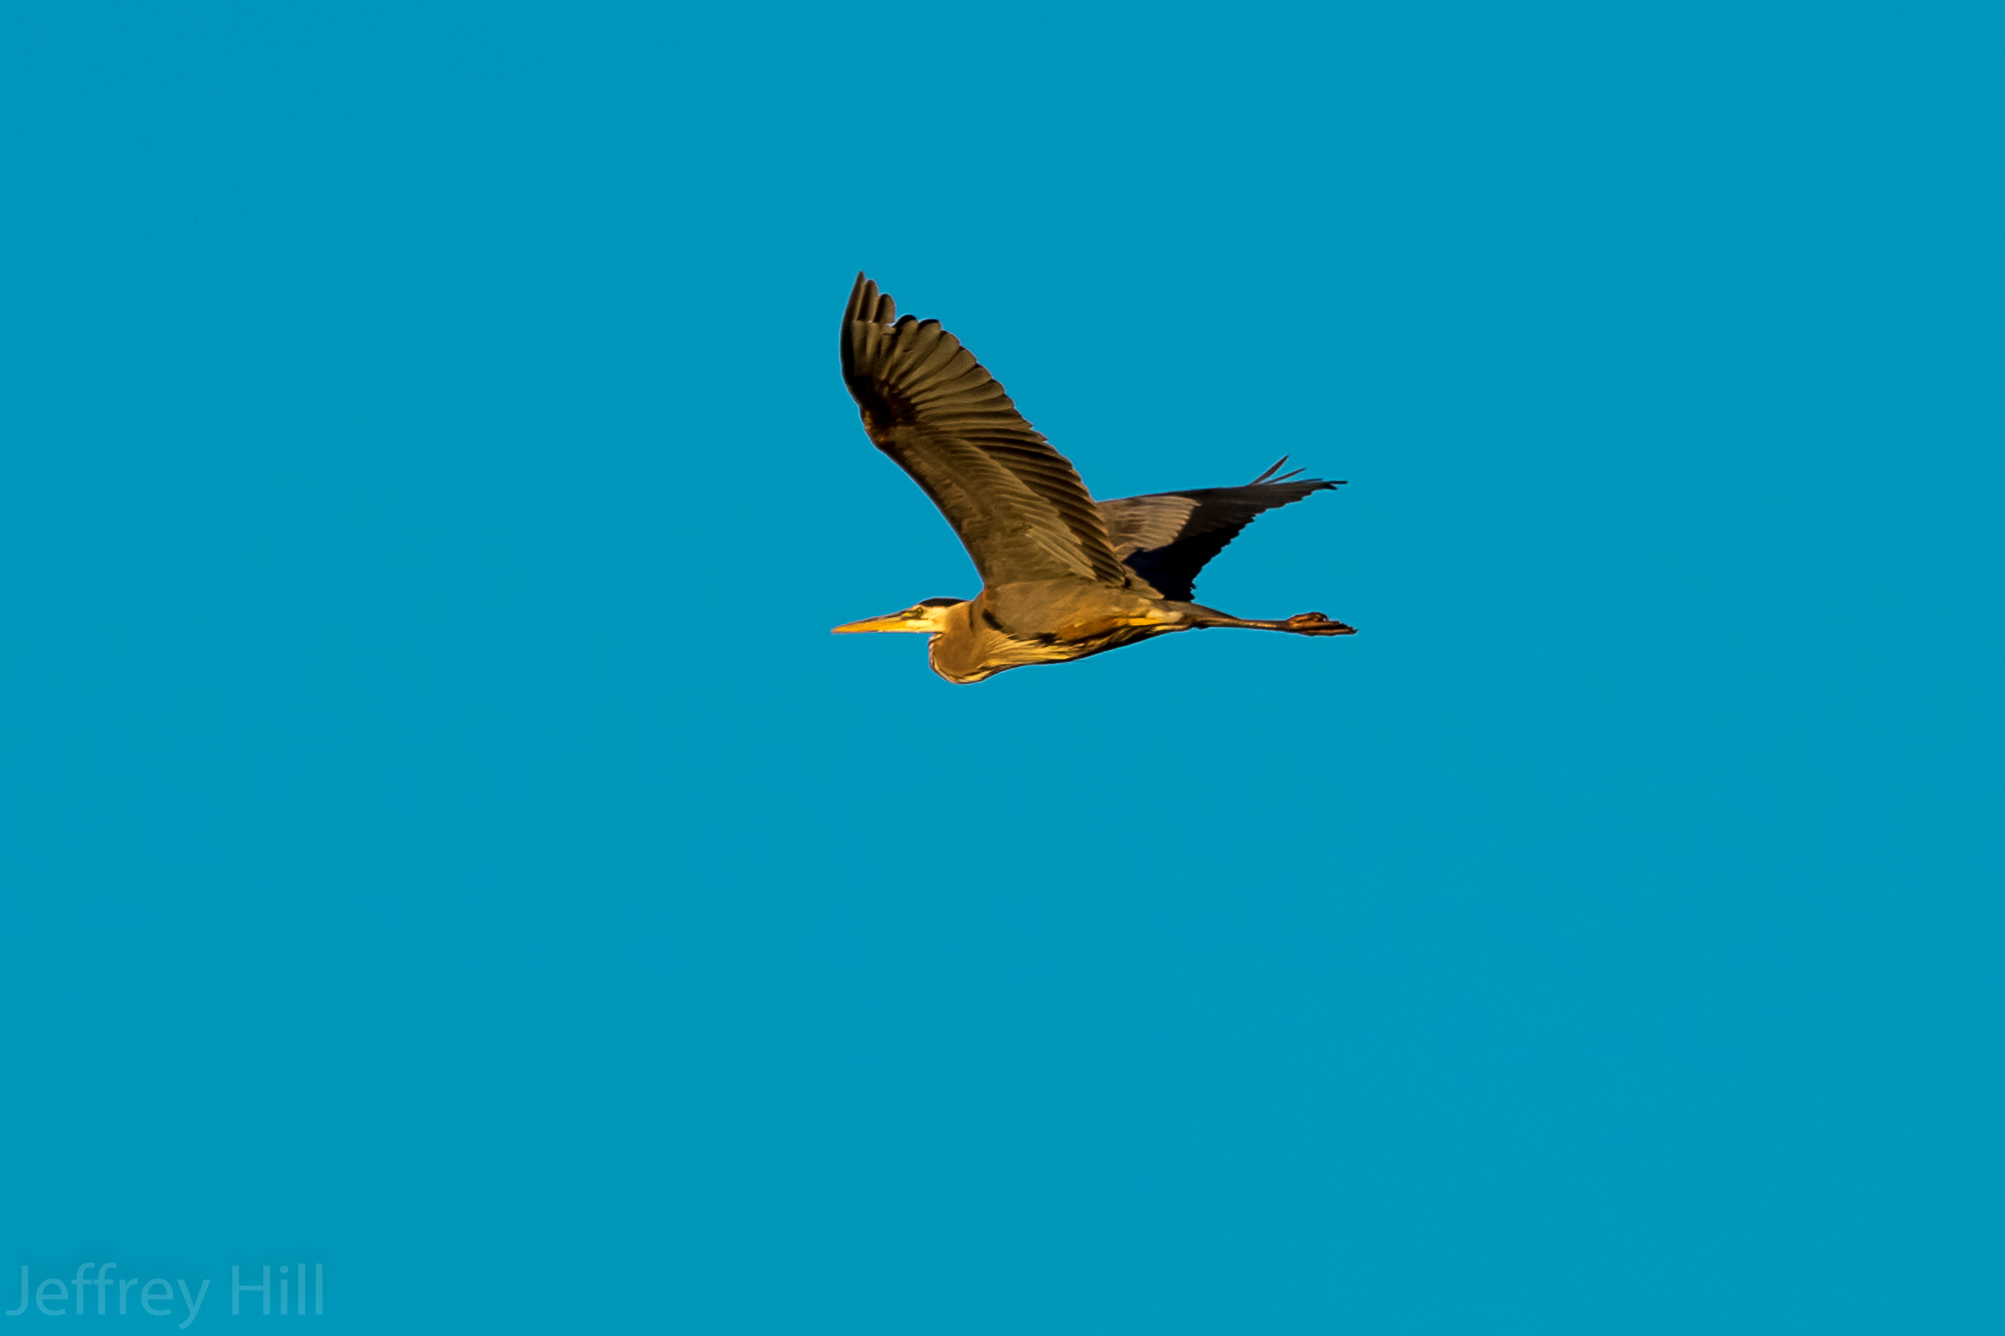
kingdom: Animalia
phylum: Chordata
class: Aves
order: Pelecaniformes
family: Ardeidae
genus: Ardea
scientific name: Ardea herodias
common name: Great blue heron
